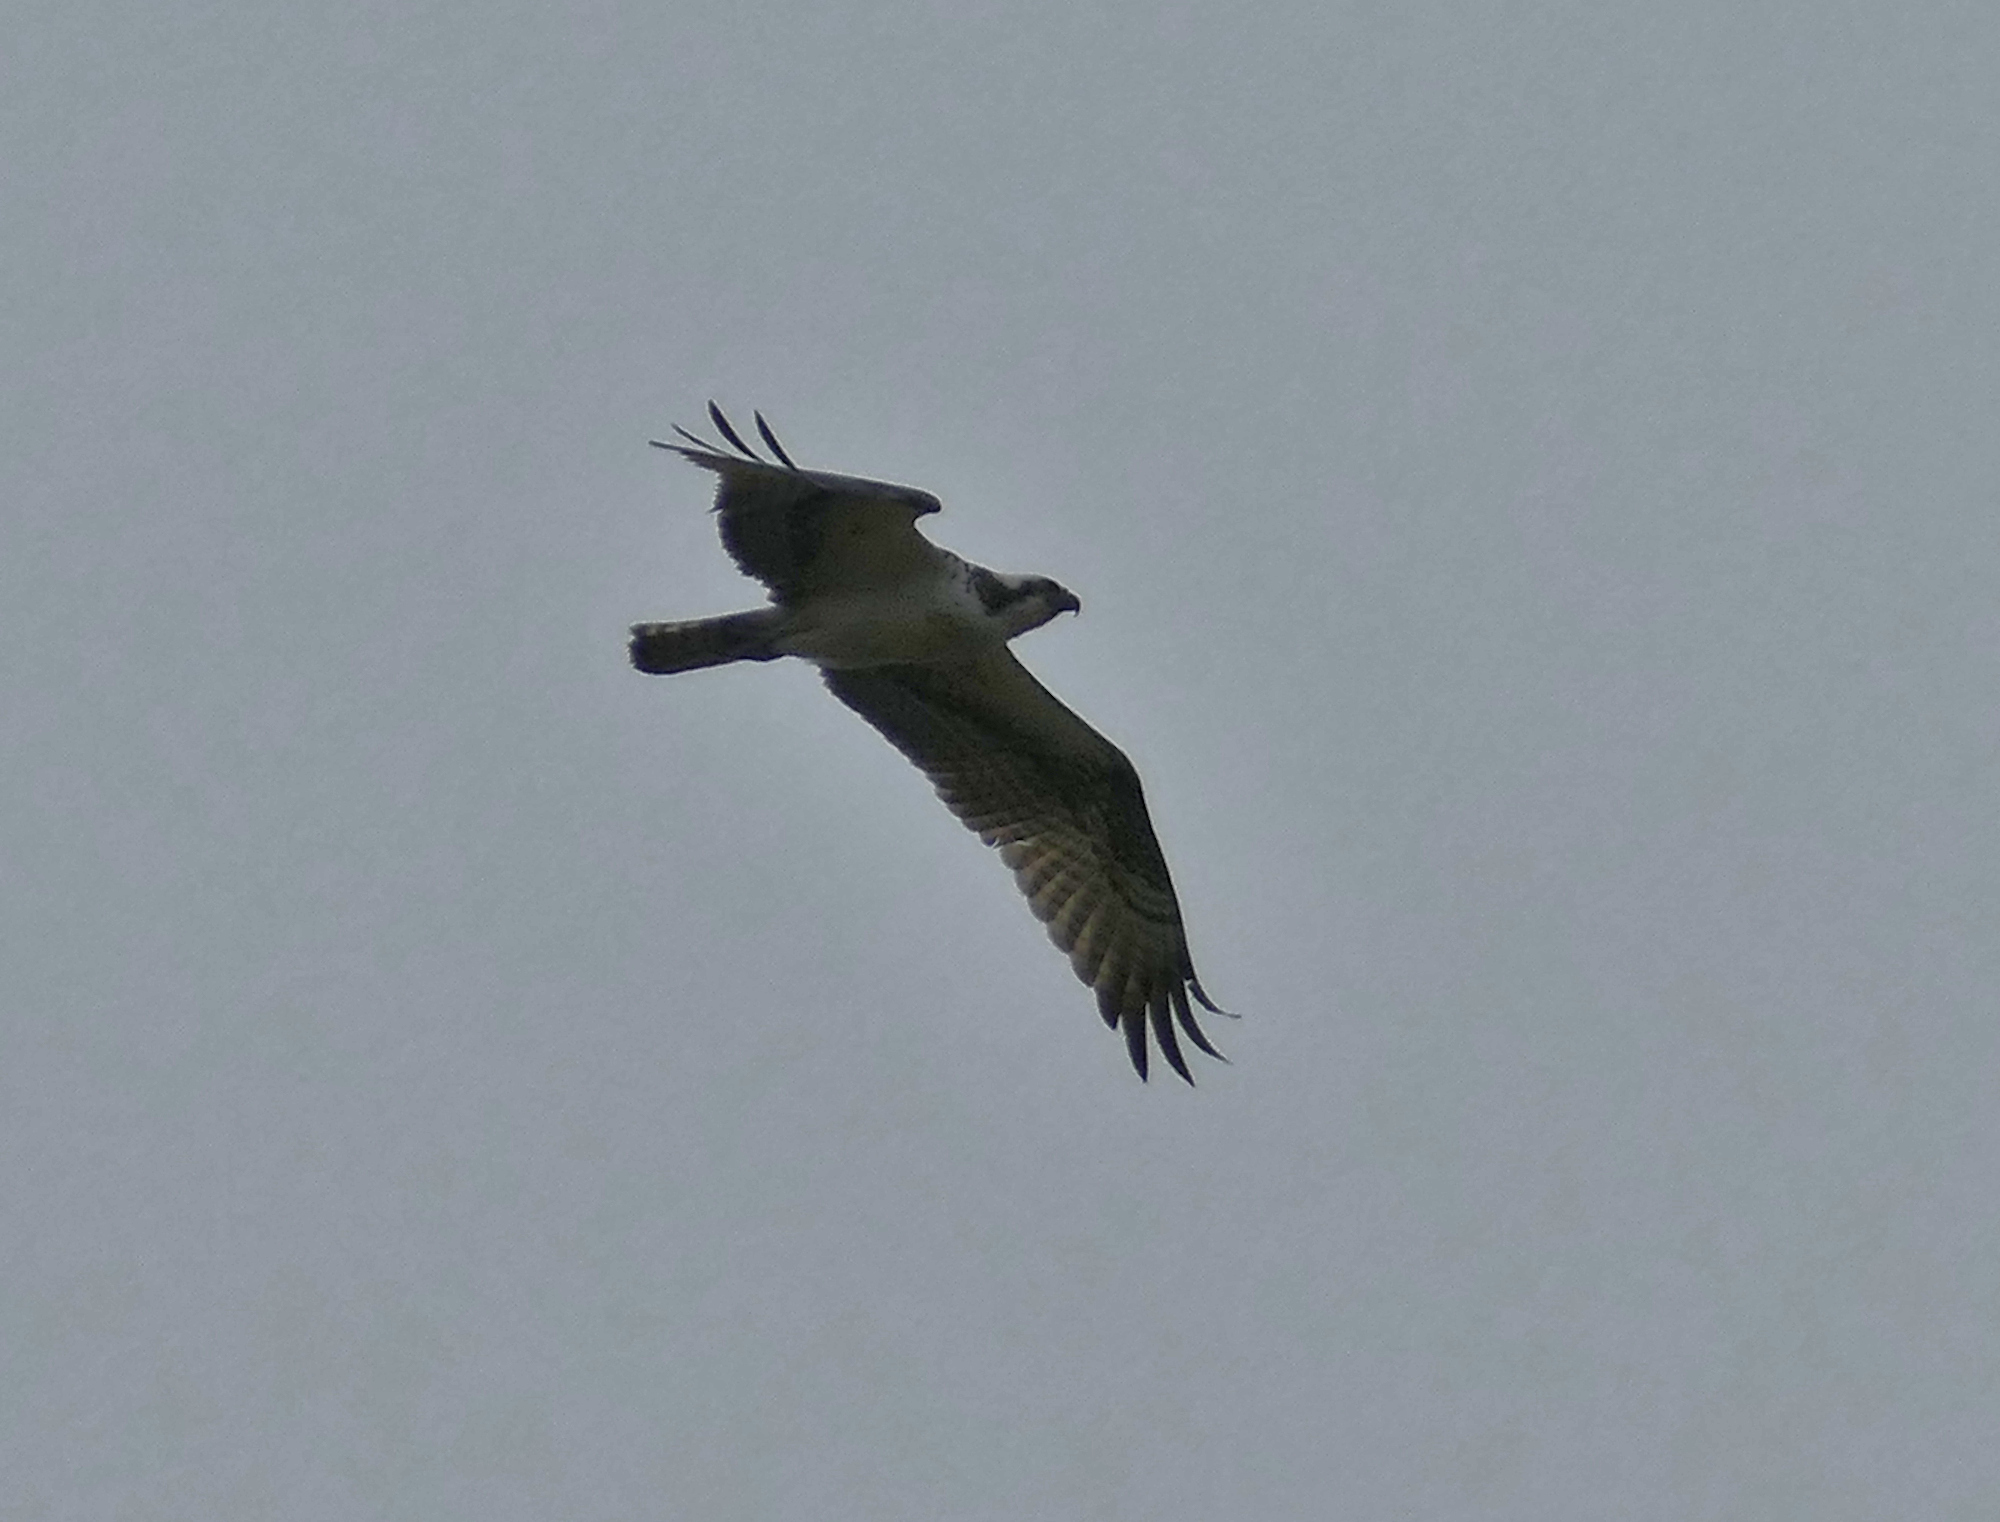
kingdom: Animalia
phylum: Chordata
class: Aves
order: Accipitriformes
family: Pandionidae
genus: Pandion
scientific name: Pandion haliaetus
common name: Osprey
